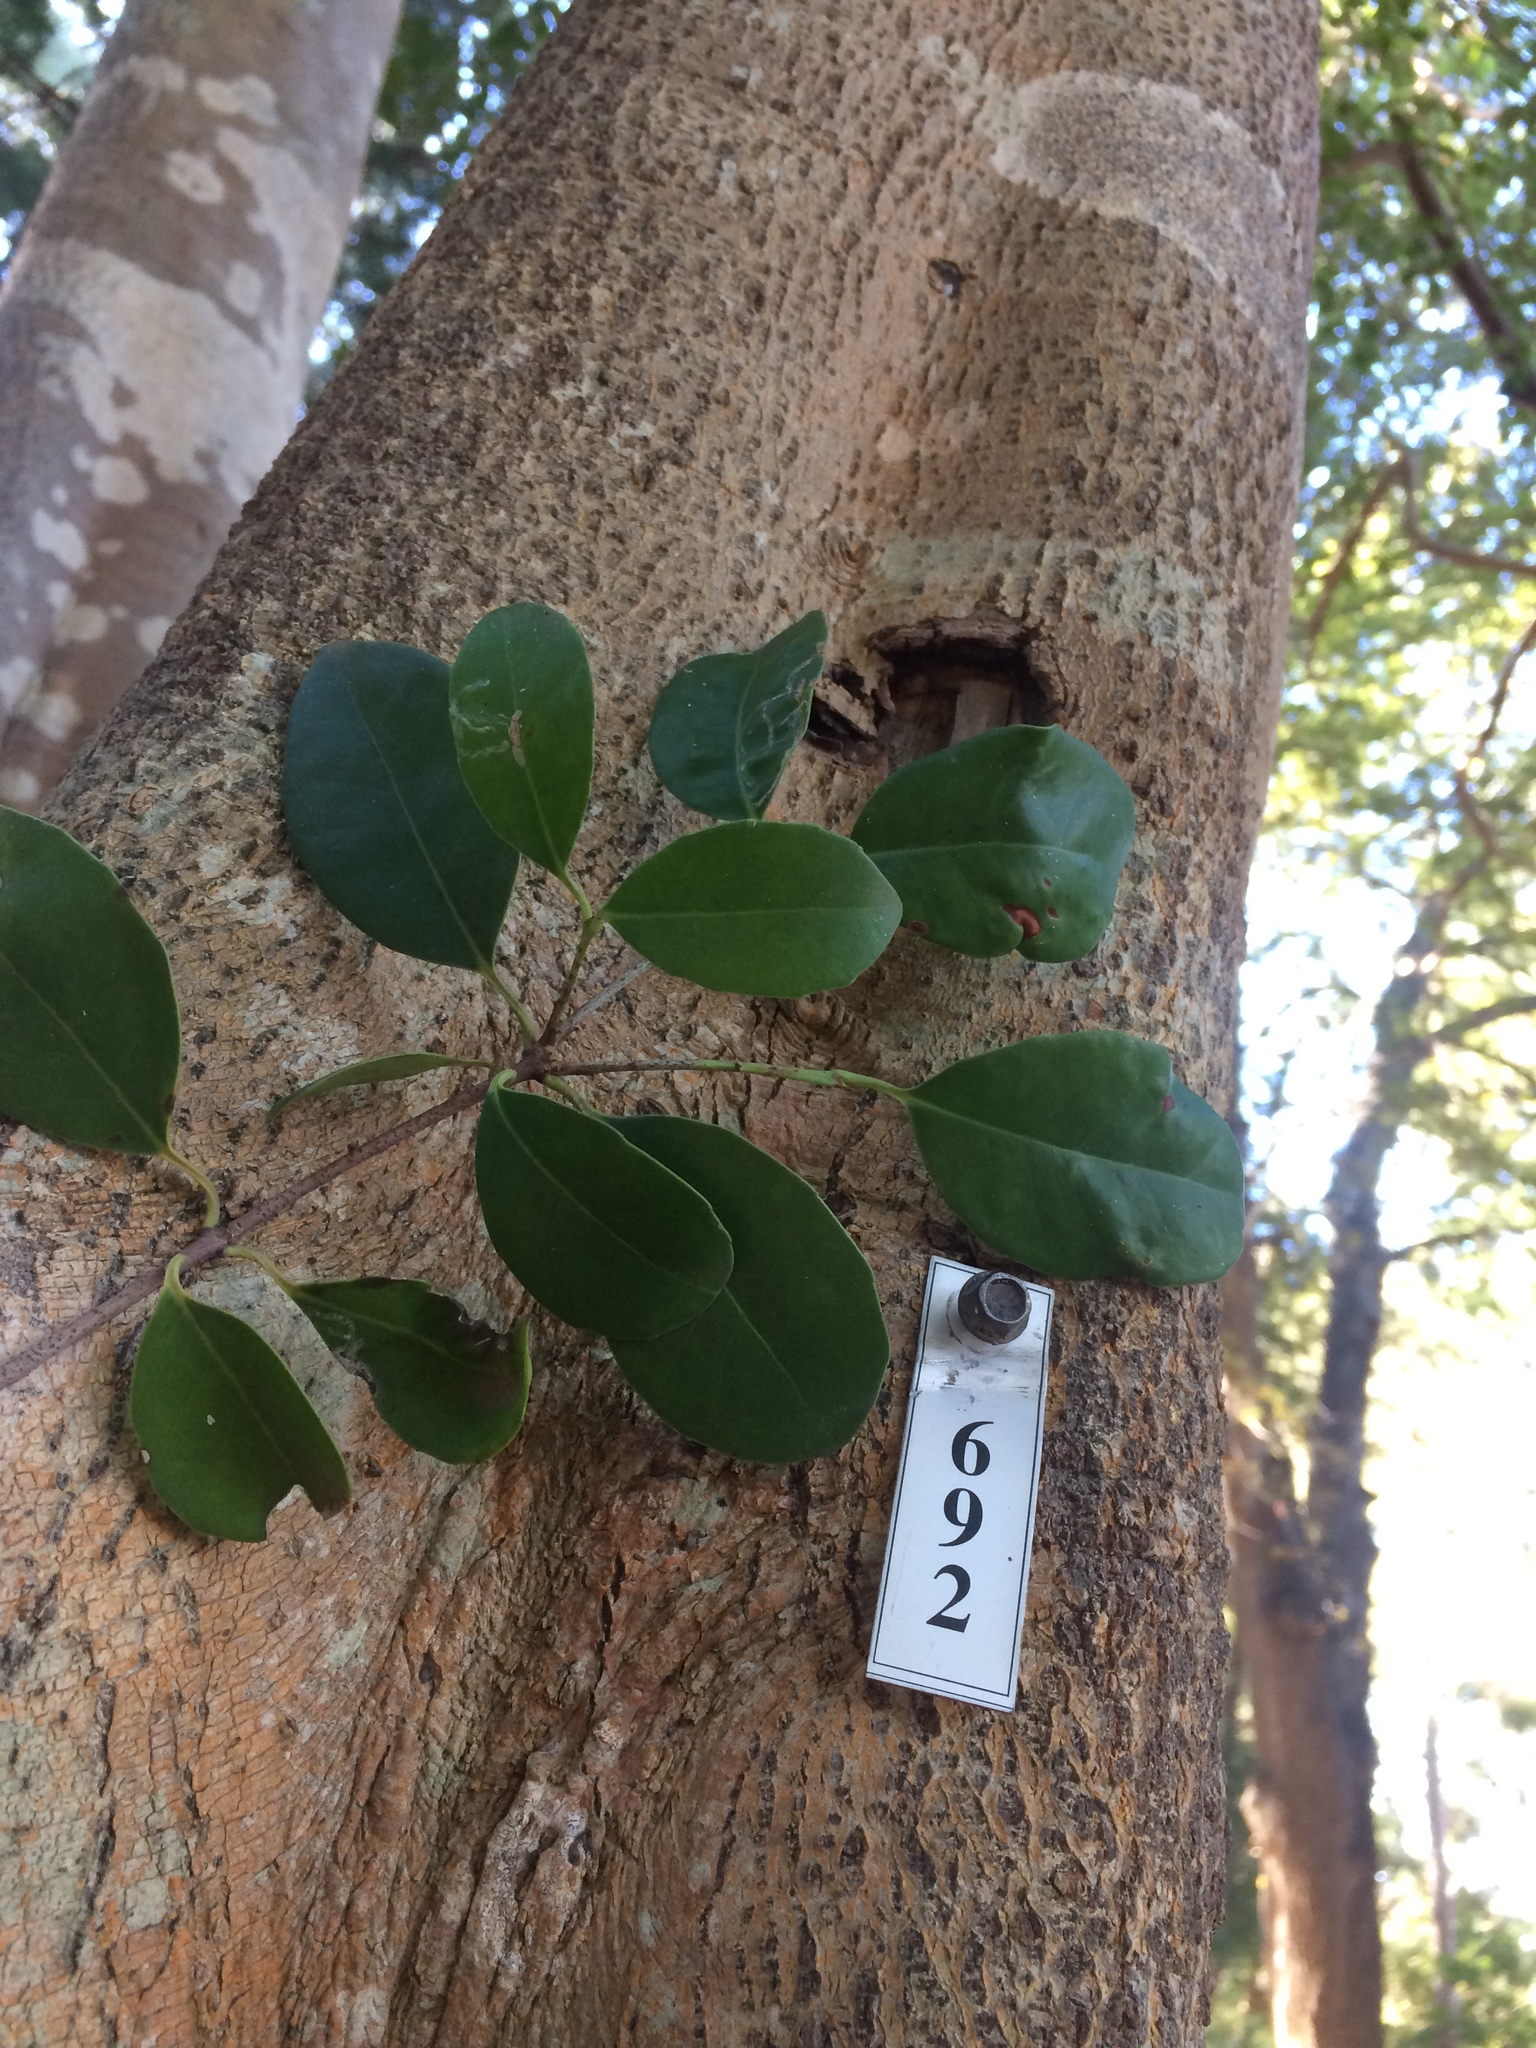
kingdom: Plantae
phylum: Tracheophyta
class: Magnoliopsida
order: Celastrales
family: Celastraceae
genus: Elaeodendron
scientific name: Elaeodendron croceum
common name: Saffron
